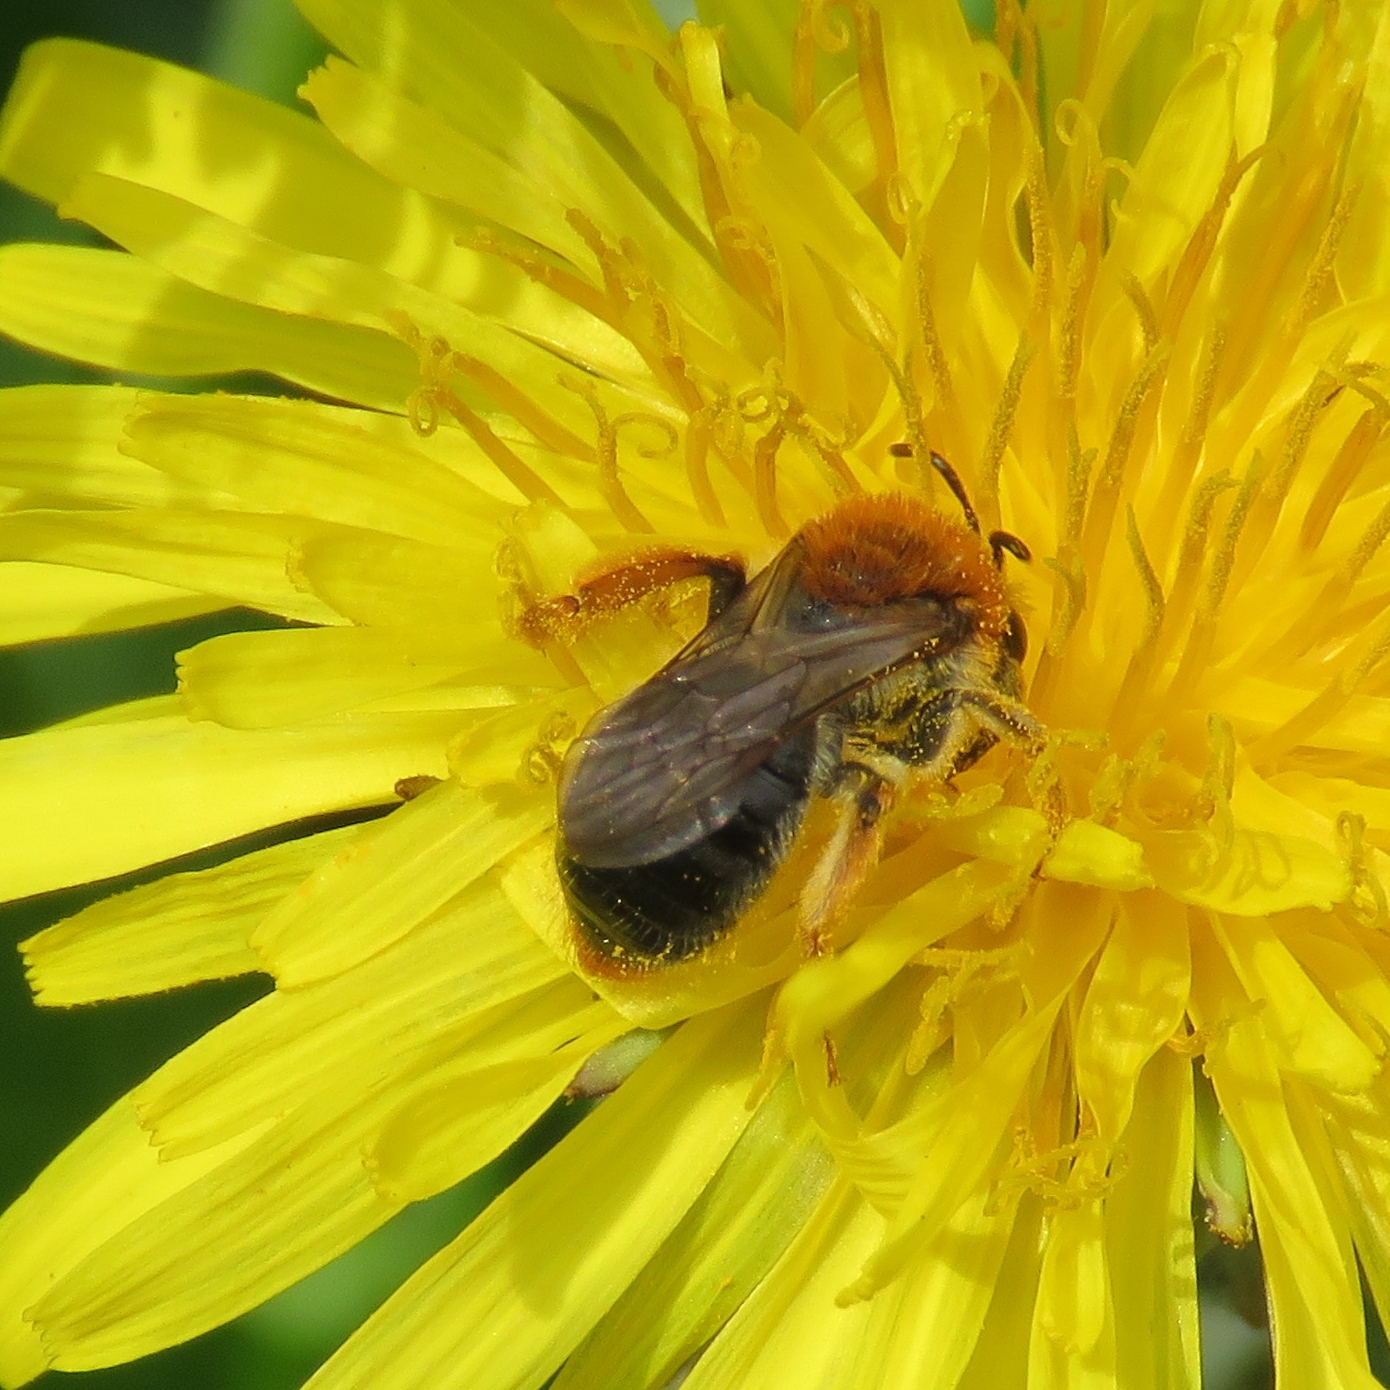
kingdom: Animalia
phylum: Arthropoda
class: Insecta
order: Hymenoptera
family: Andrenidae
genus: Andrena
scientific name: Andrena haemorrhoa
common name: Early mining bee
